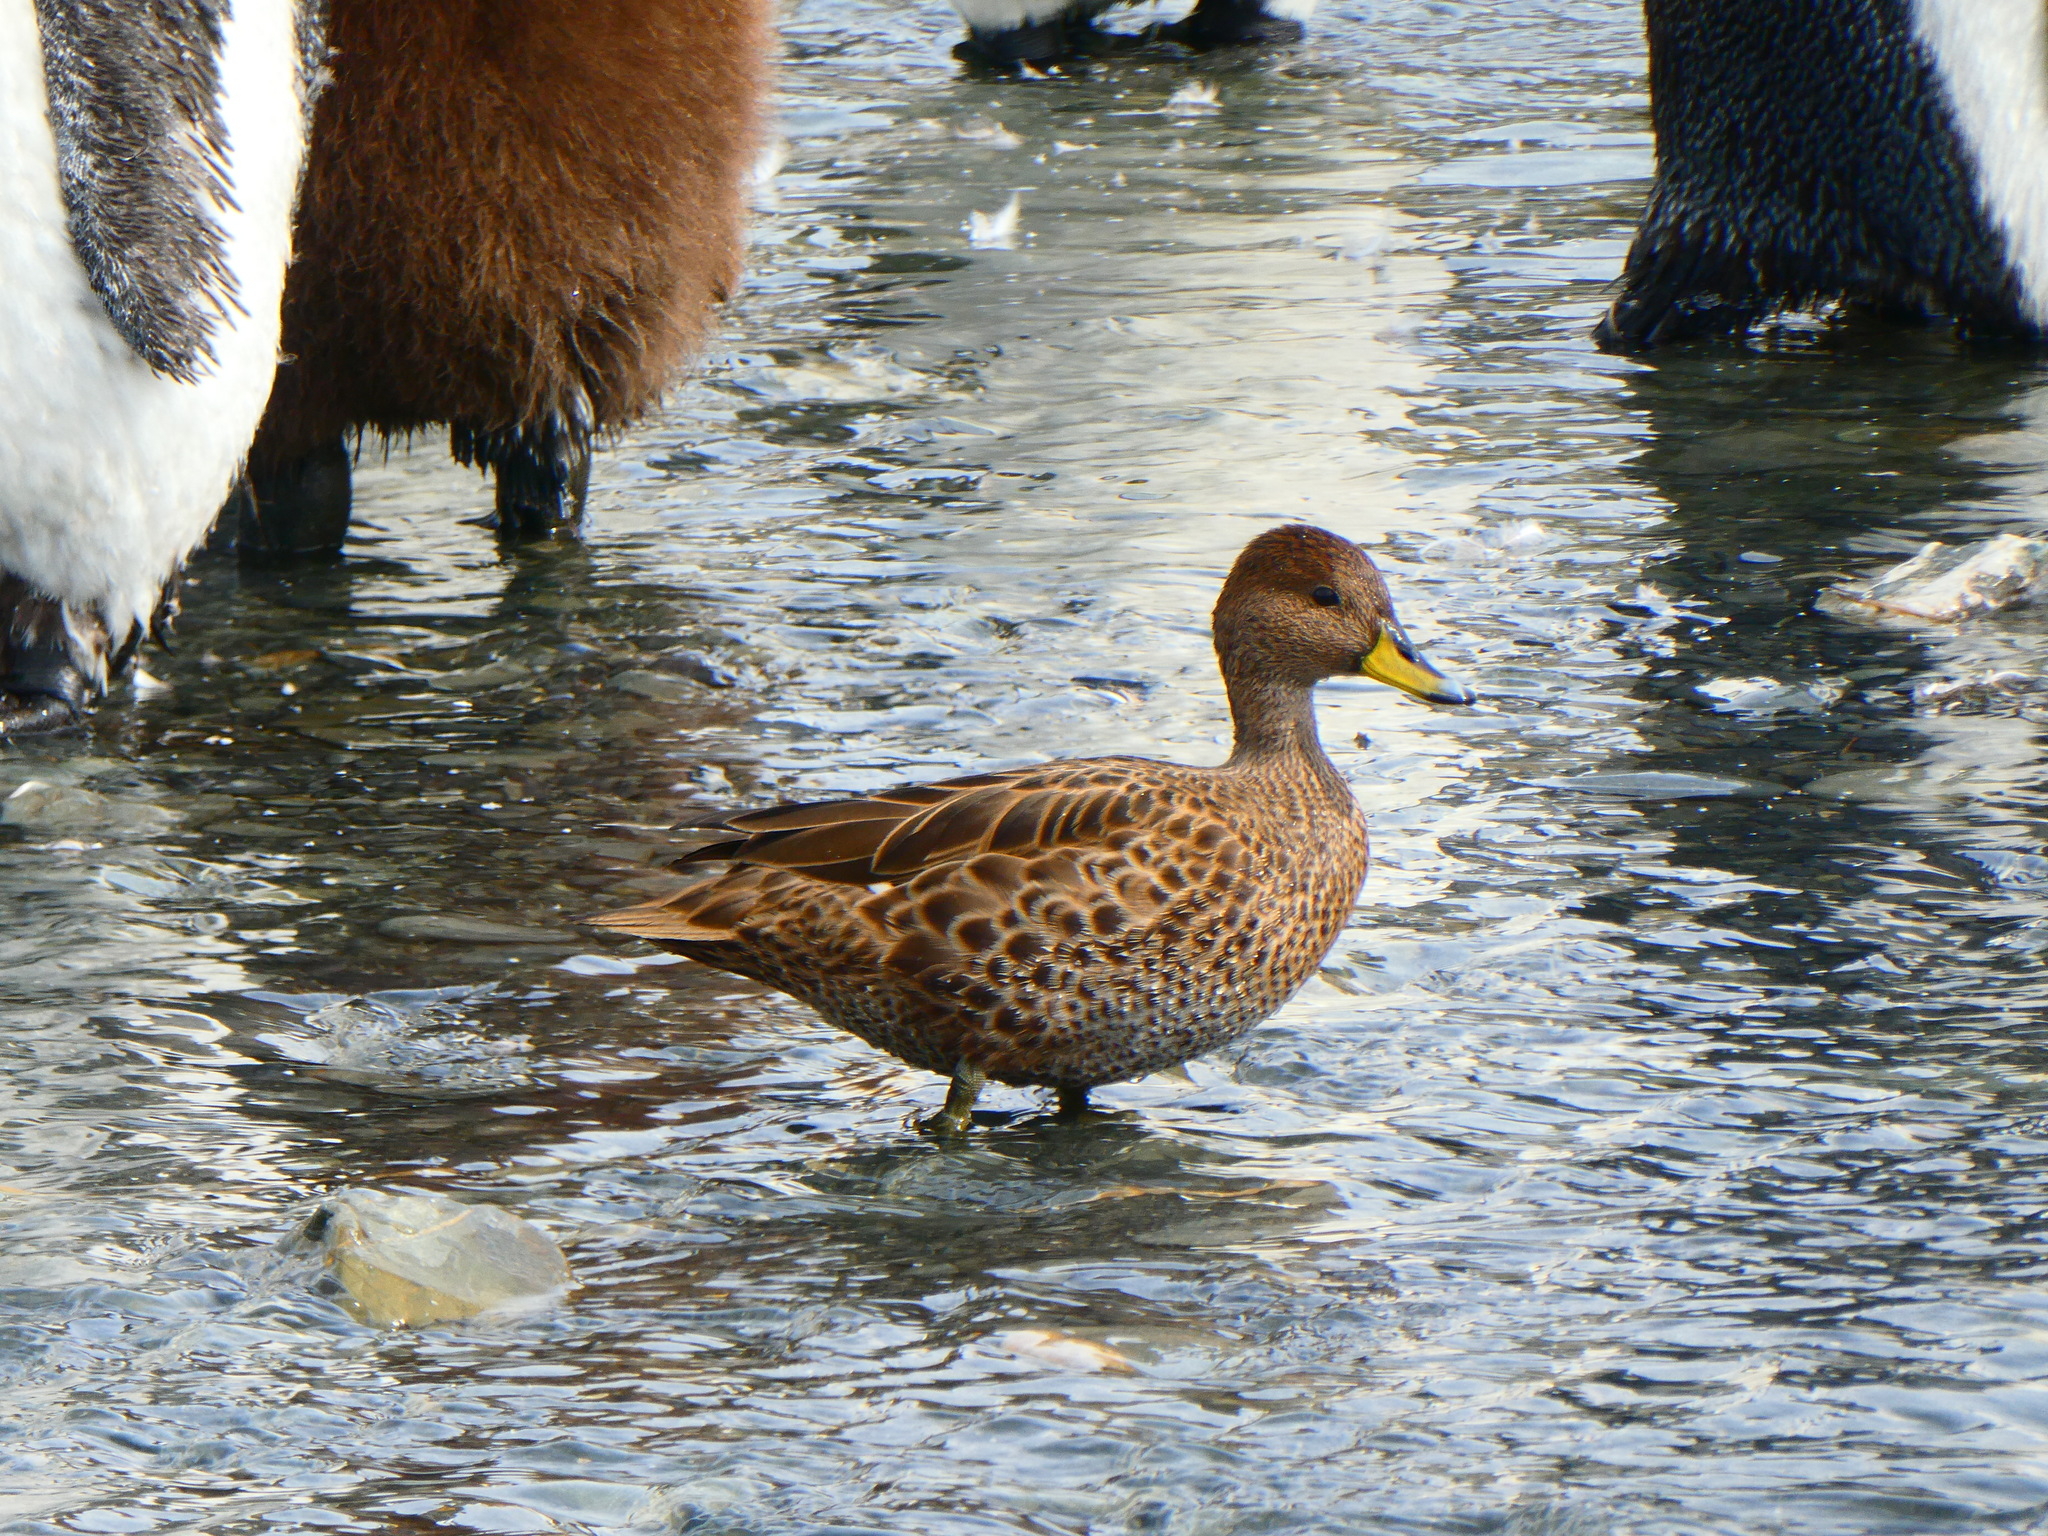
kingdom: Animalia
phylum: Chordata
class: Aves
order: Anseriformes
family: Anatidae
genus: Anas
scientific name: Anas georgica
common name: Yellow-billed pintail
